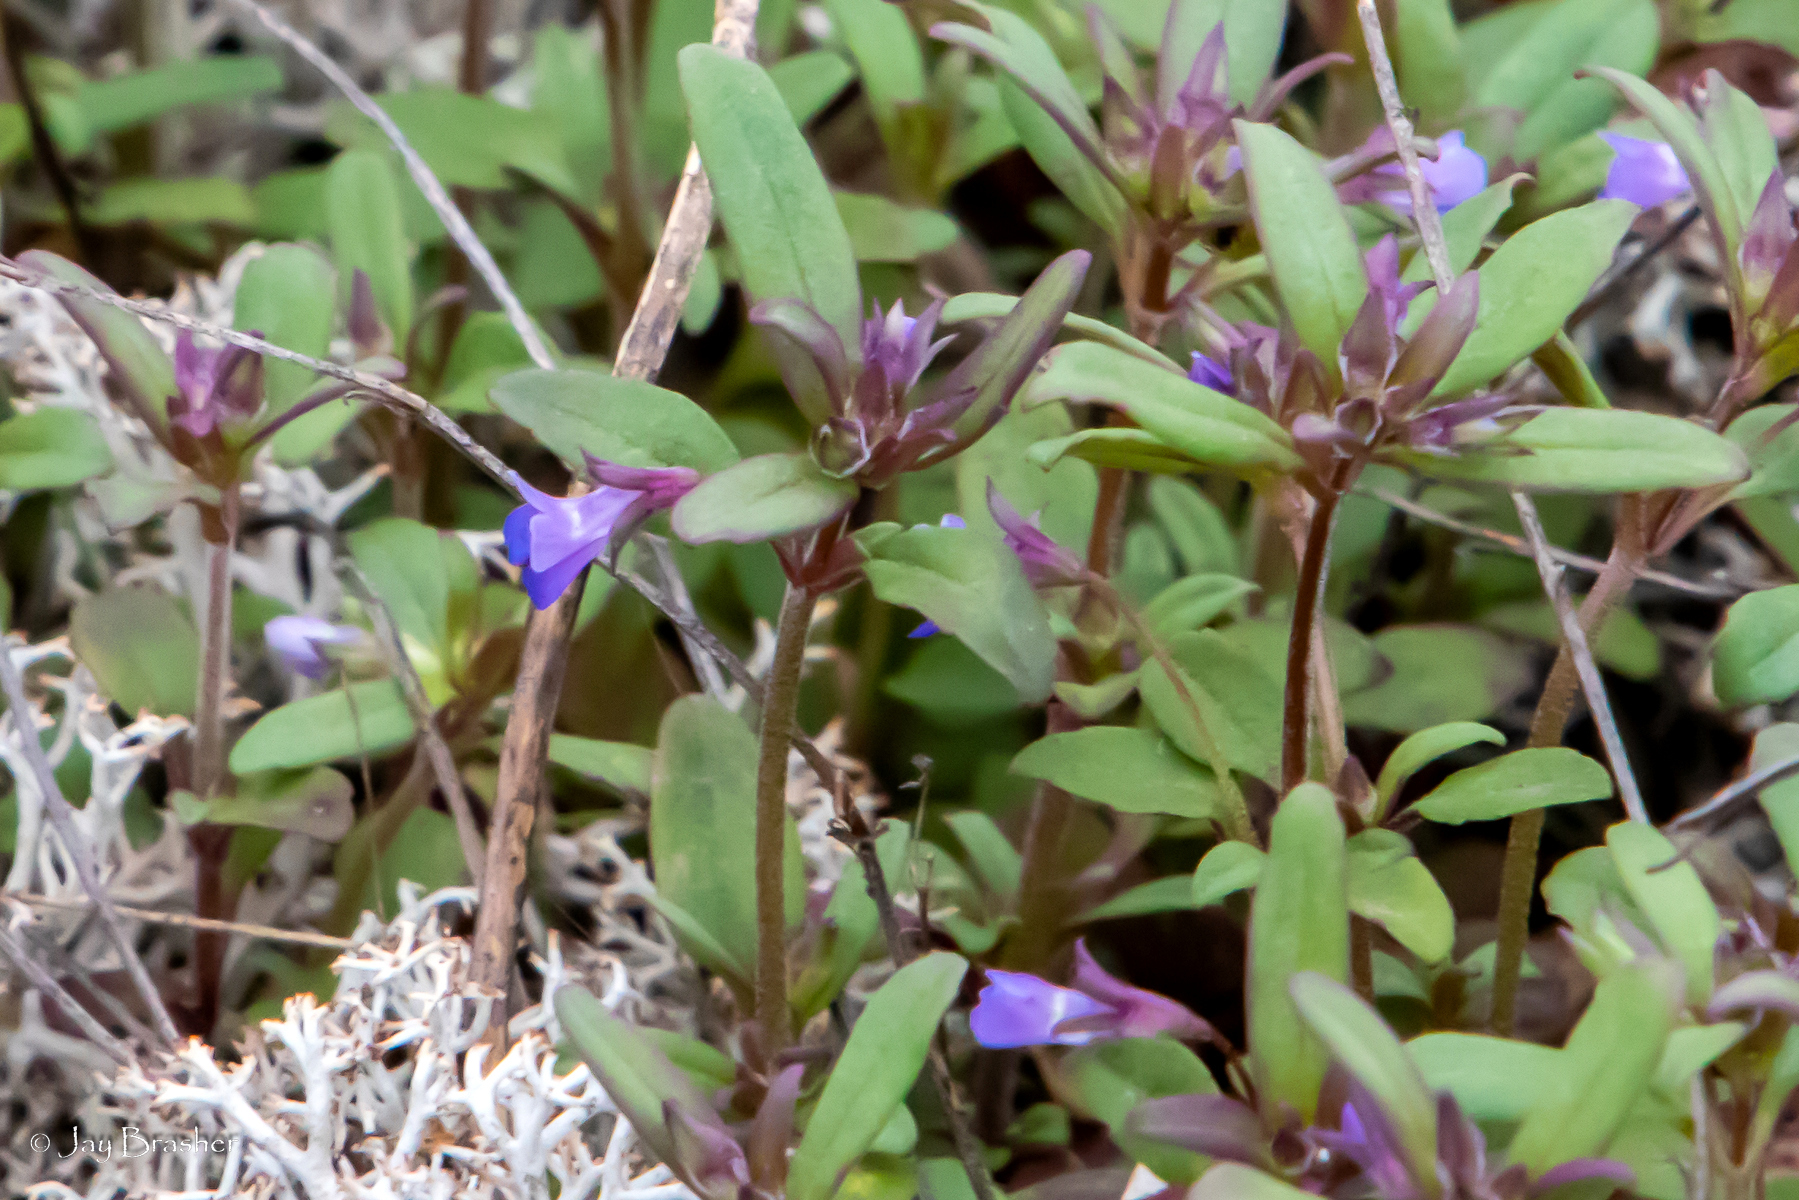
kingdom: Plantae
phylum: Tracheophyta
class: Magnoliopsida
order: Lamiales
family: Plantaginaceae
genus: Collinsia
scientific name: Collinsia parviflora
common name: Blue-lips
